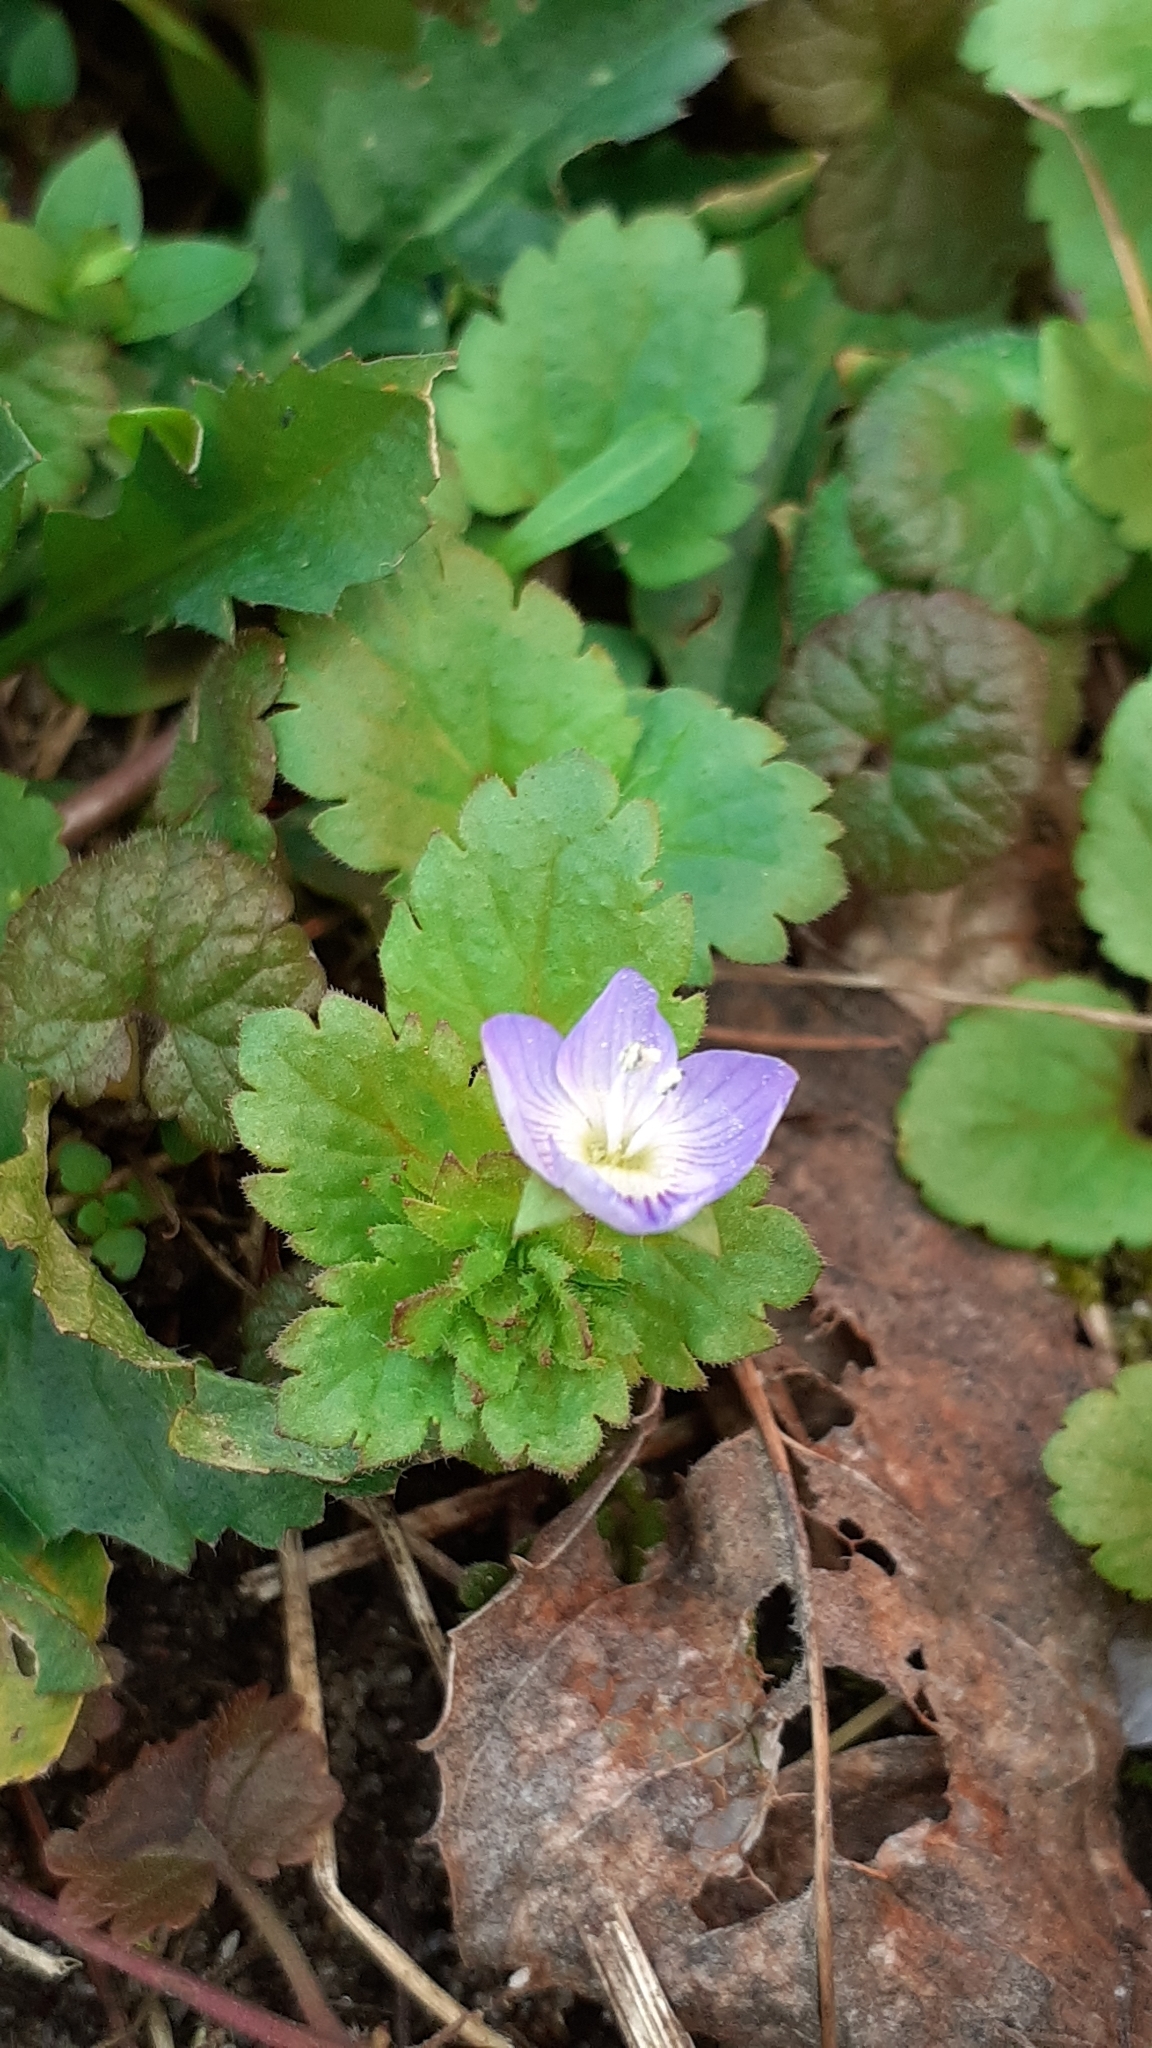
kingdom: Plantae
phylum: Tracheophyta
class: Magnoliopsida
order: Lamiales
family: Plantaginaceae
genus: Veronica
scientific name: Veronica persica
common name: Common field-speedwell
